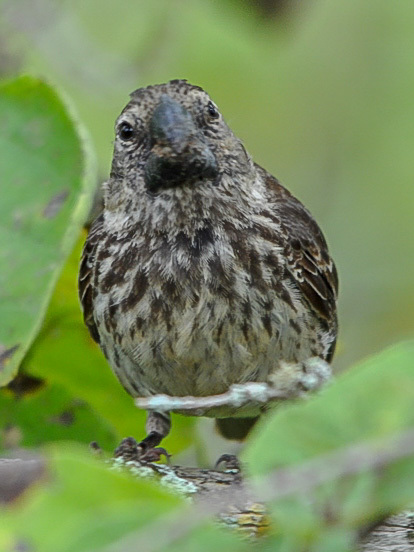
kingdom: Animalia
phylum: Chordata
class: Aves
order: Passeriformes
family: Thraupidae
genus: Geospiza
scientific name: Geospiza magnirostris
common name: Large ground-finch
